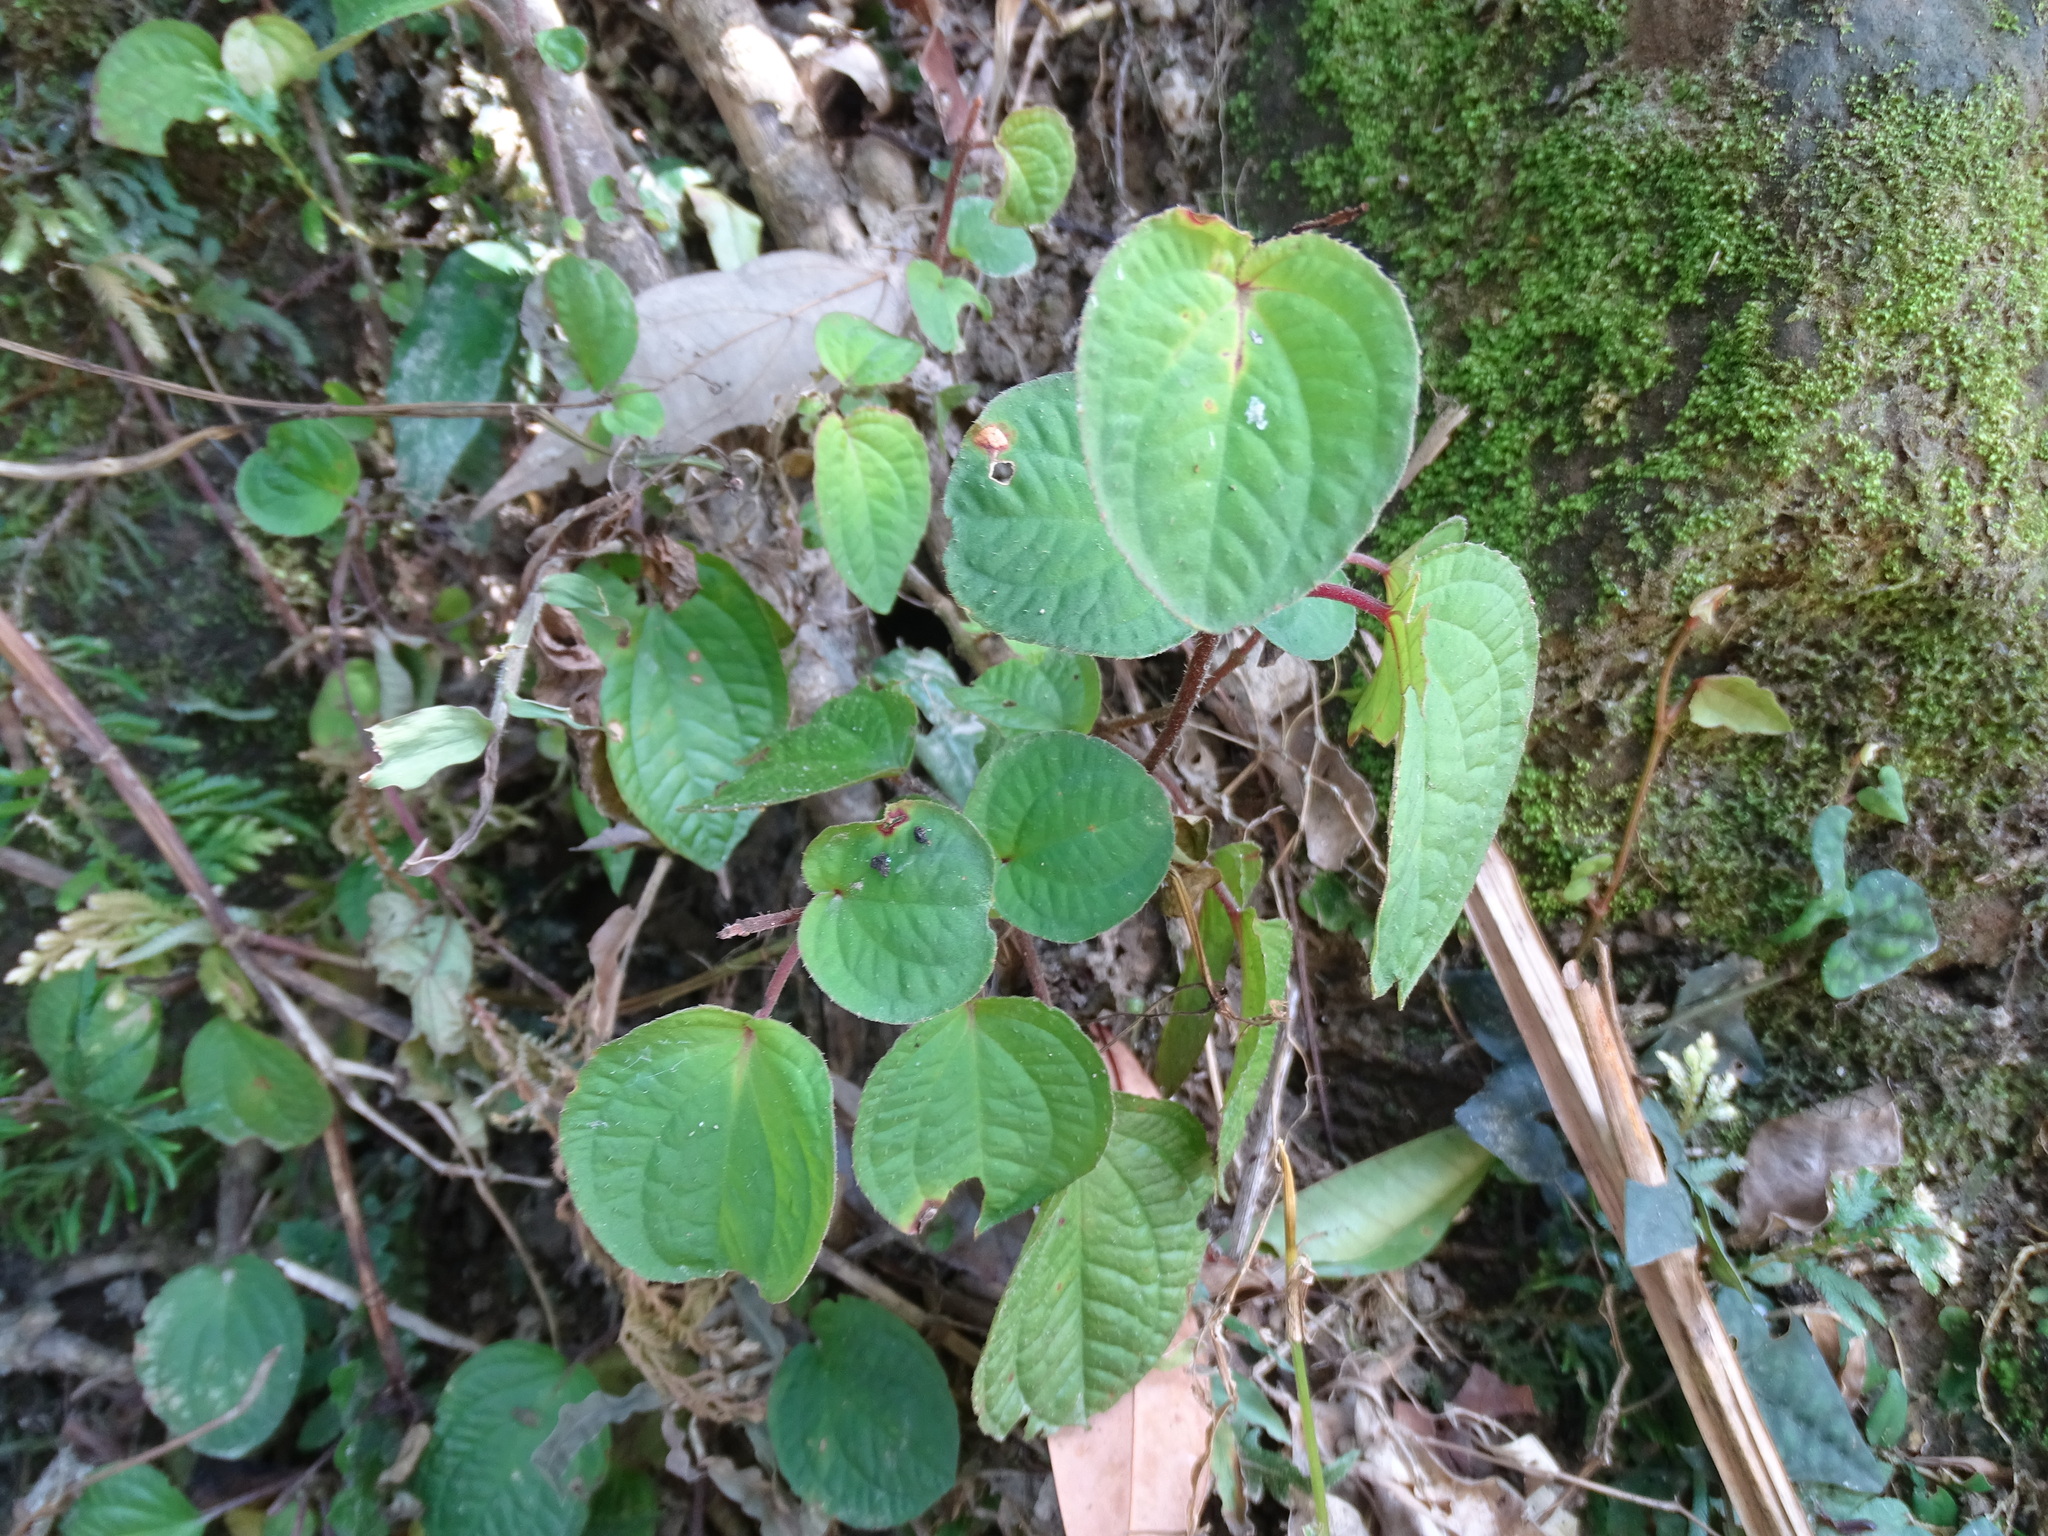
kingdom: Plantae
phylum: Tracheophyta
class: Magnoliopsida
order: Myrtales
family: Melastomataceae
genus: Bredia
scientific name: Bredia hirsuta
